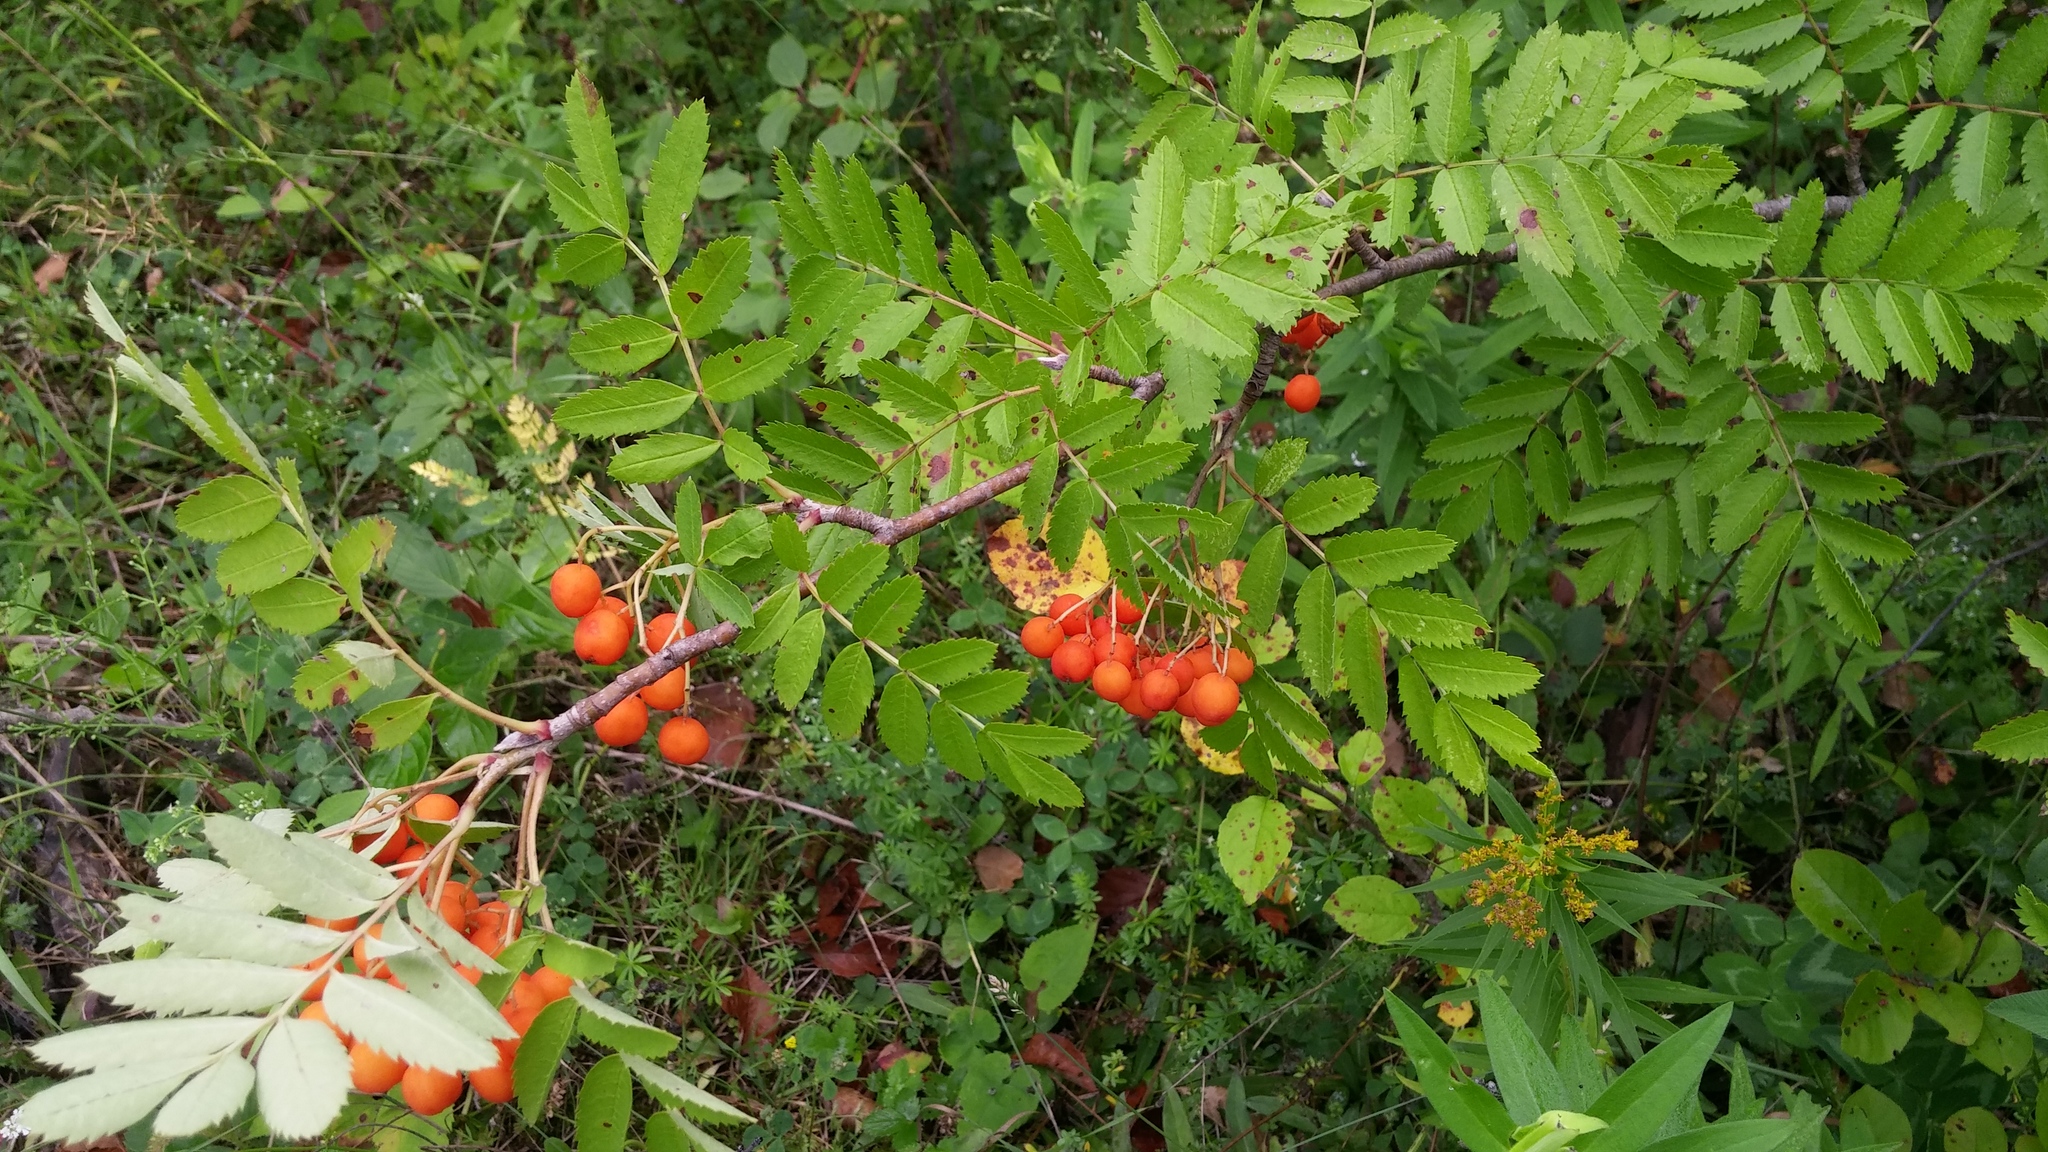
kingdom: Plantae
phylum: Tracheophyta
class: Magnoliopsida
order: Rosales
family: Rosaceae
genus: Sorbus
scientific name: Sorbus aucuparia
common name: Rowan
